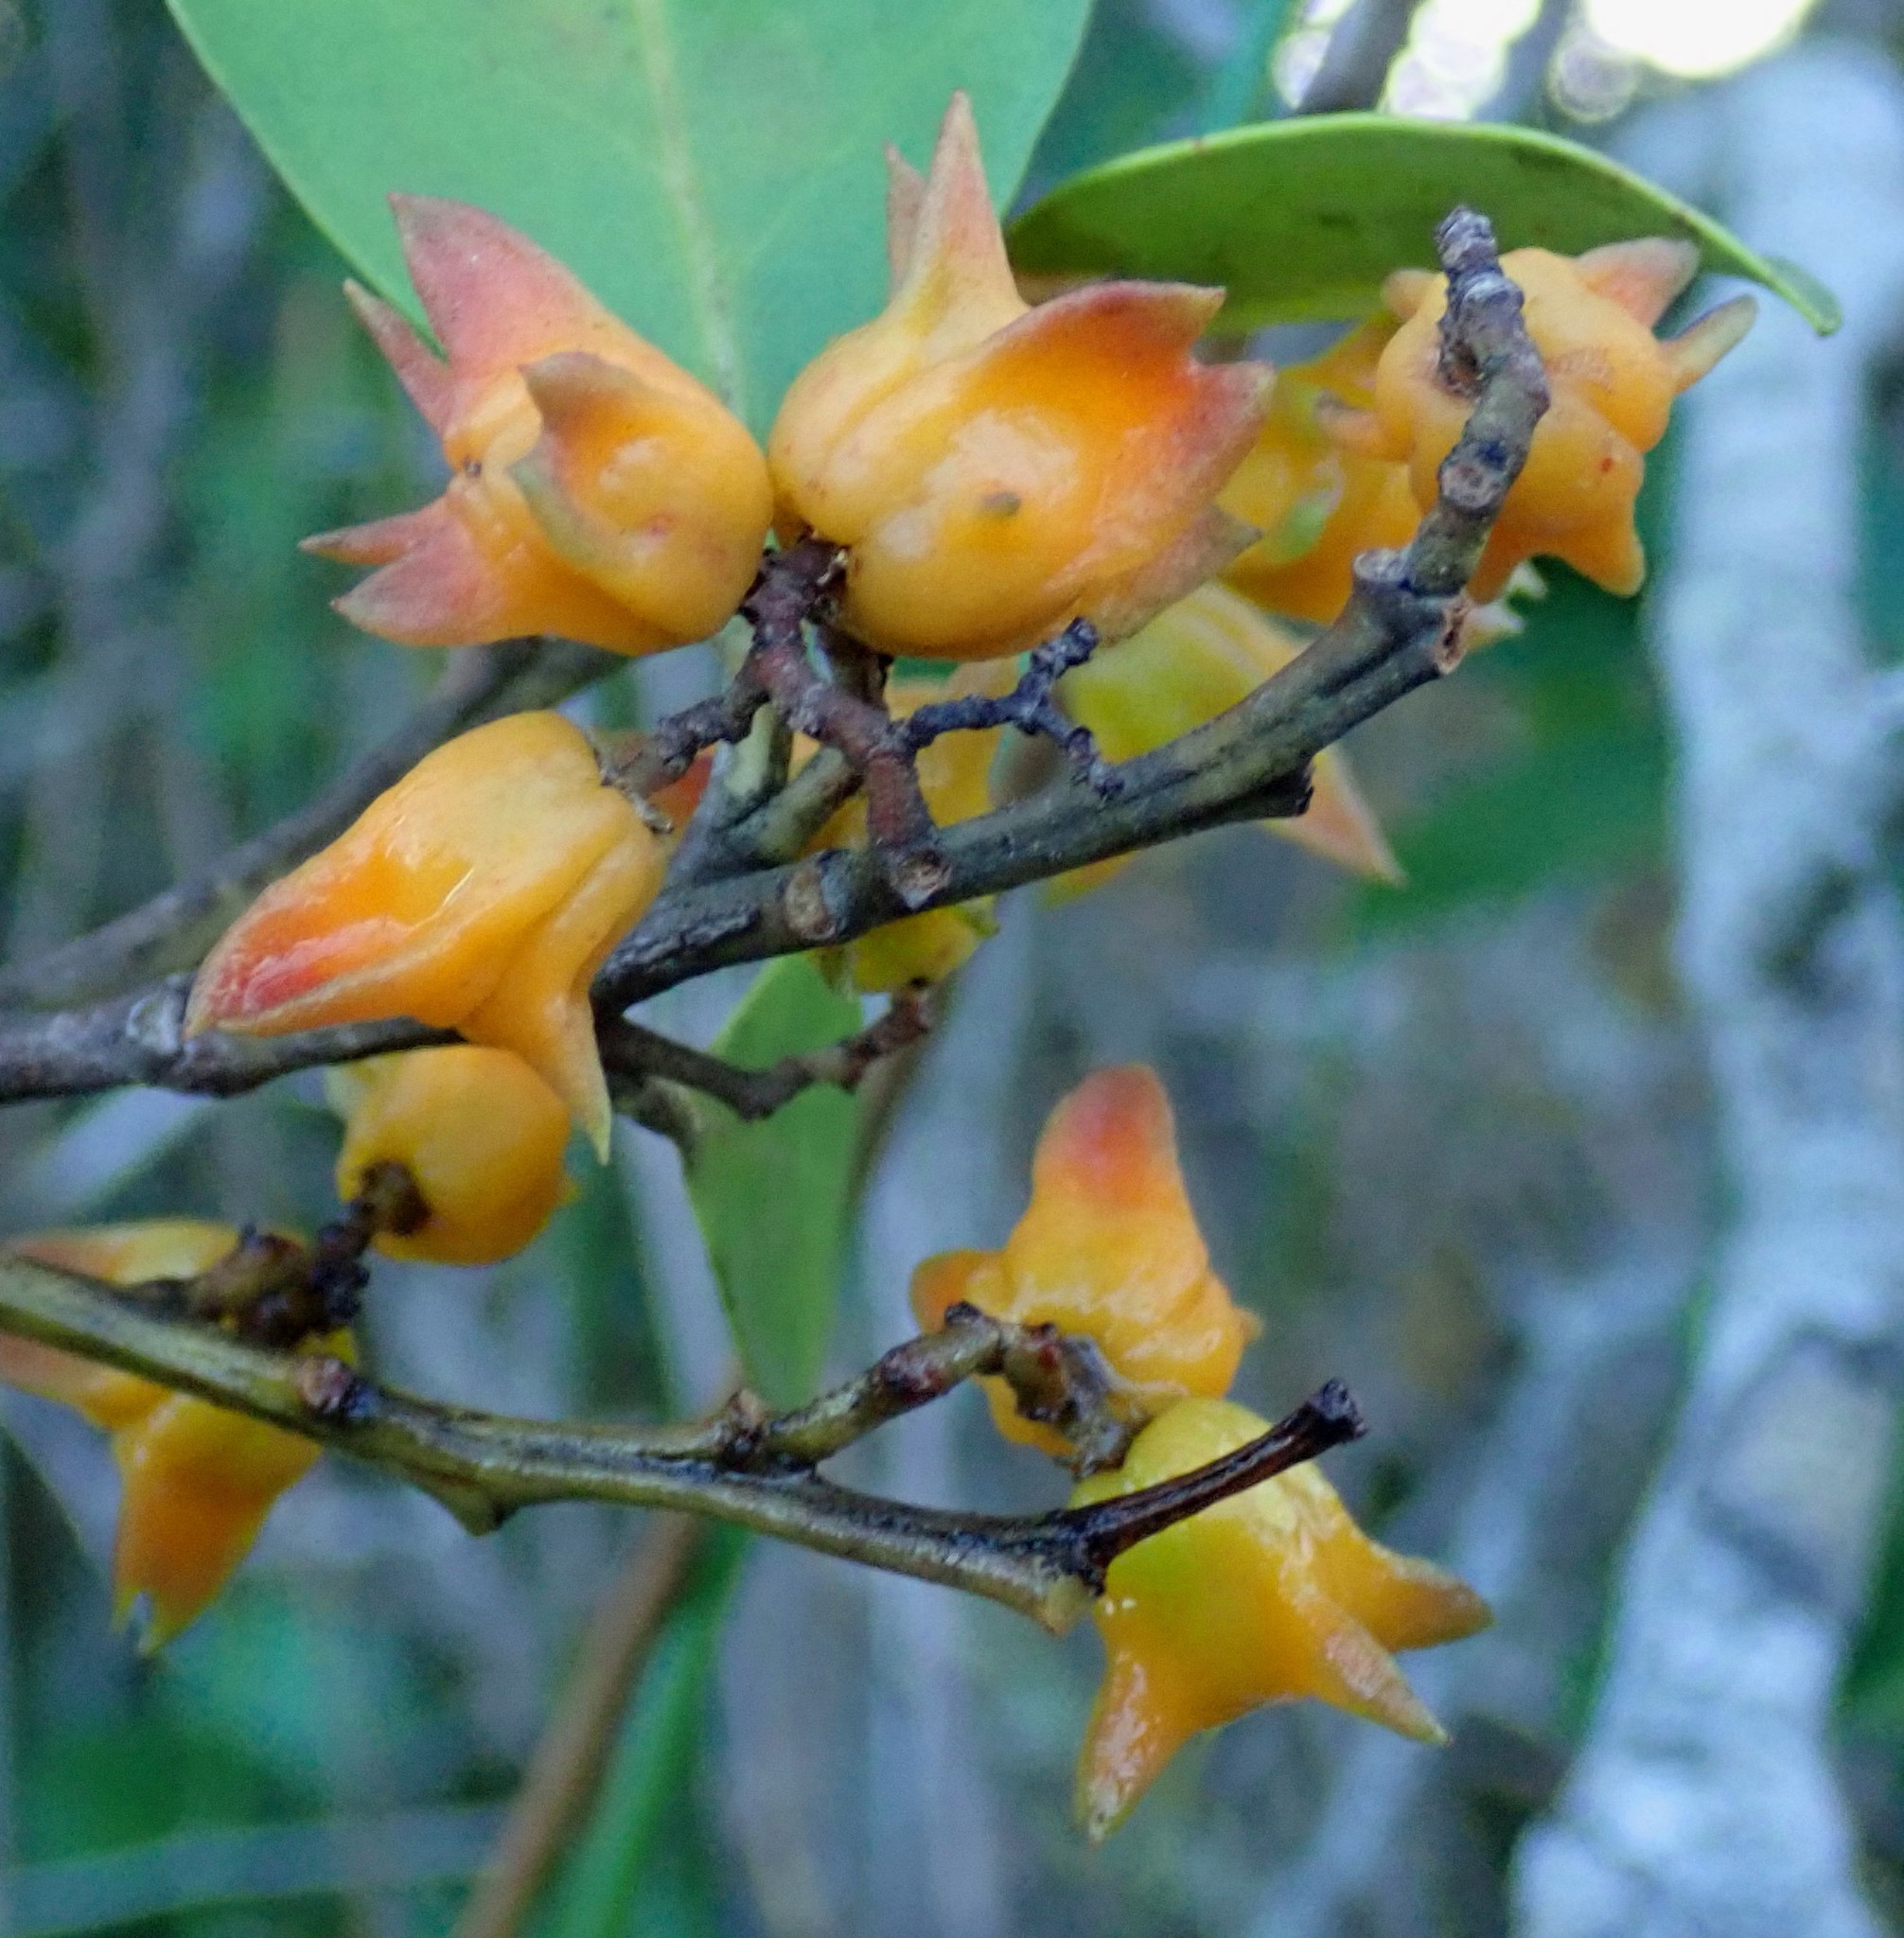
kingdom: Plantae
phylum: Tracheophyta
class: Magnoliopsida
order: Celastrales
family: Celastraceae
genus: Pterocelastrus
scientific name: Pterocelastrus tricuspidatus
